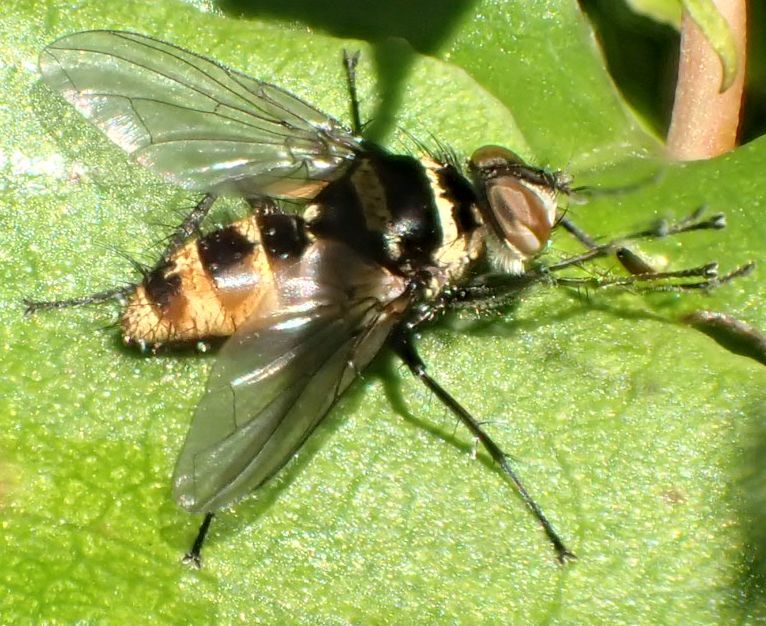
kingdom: Animalia
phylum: Arthropoda
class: Insecta
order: Diptera
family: Tachinidae
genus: Trigonospila
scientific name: Trigonospila brevifacies
